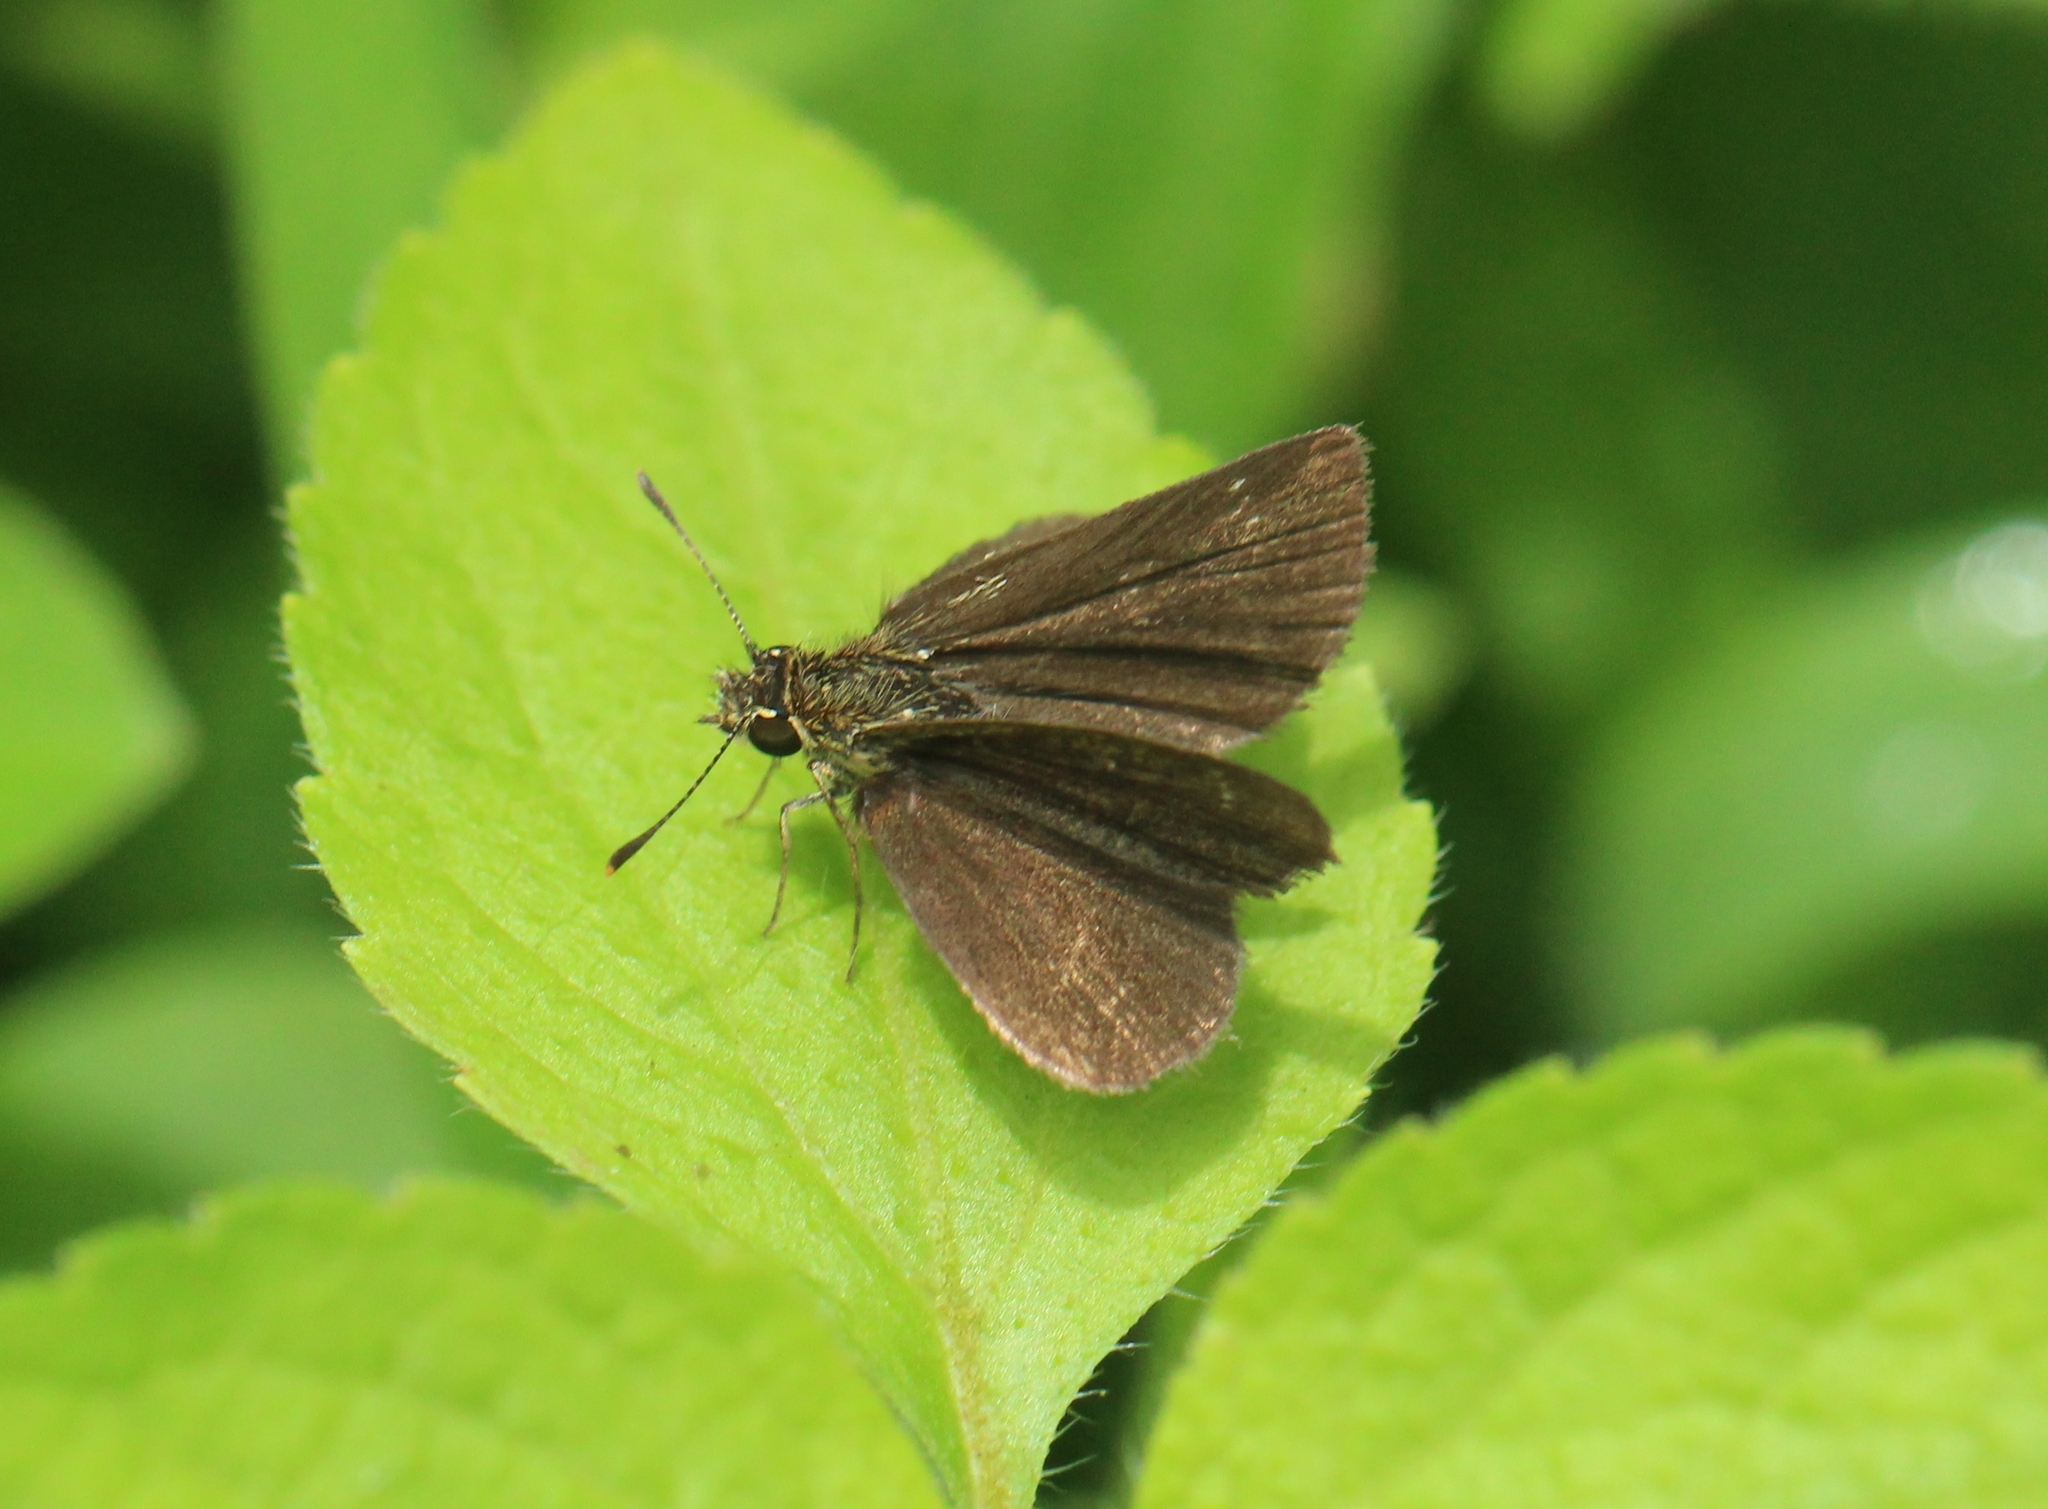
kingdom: Animalia
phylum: Arthropoda
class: Insecta
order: Lepidoptera
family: Hesperiidae
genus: Aeromachus
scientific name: Aeromachus pygmaeus
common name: Pygmy scrub hopper
